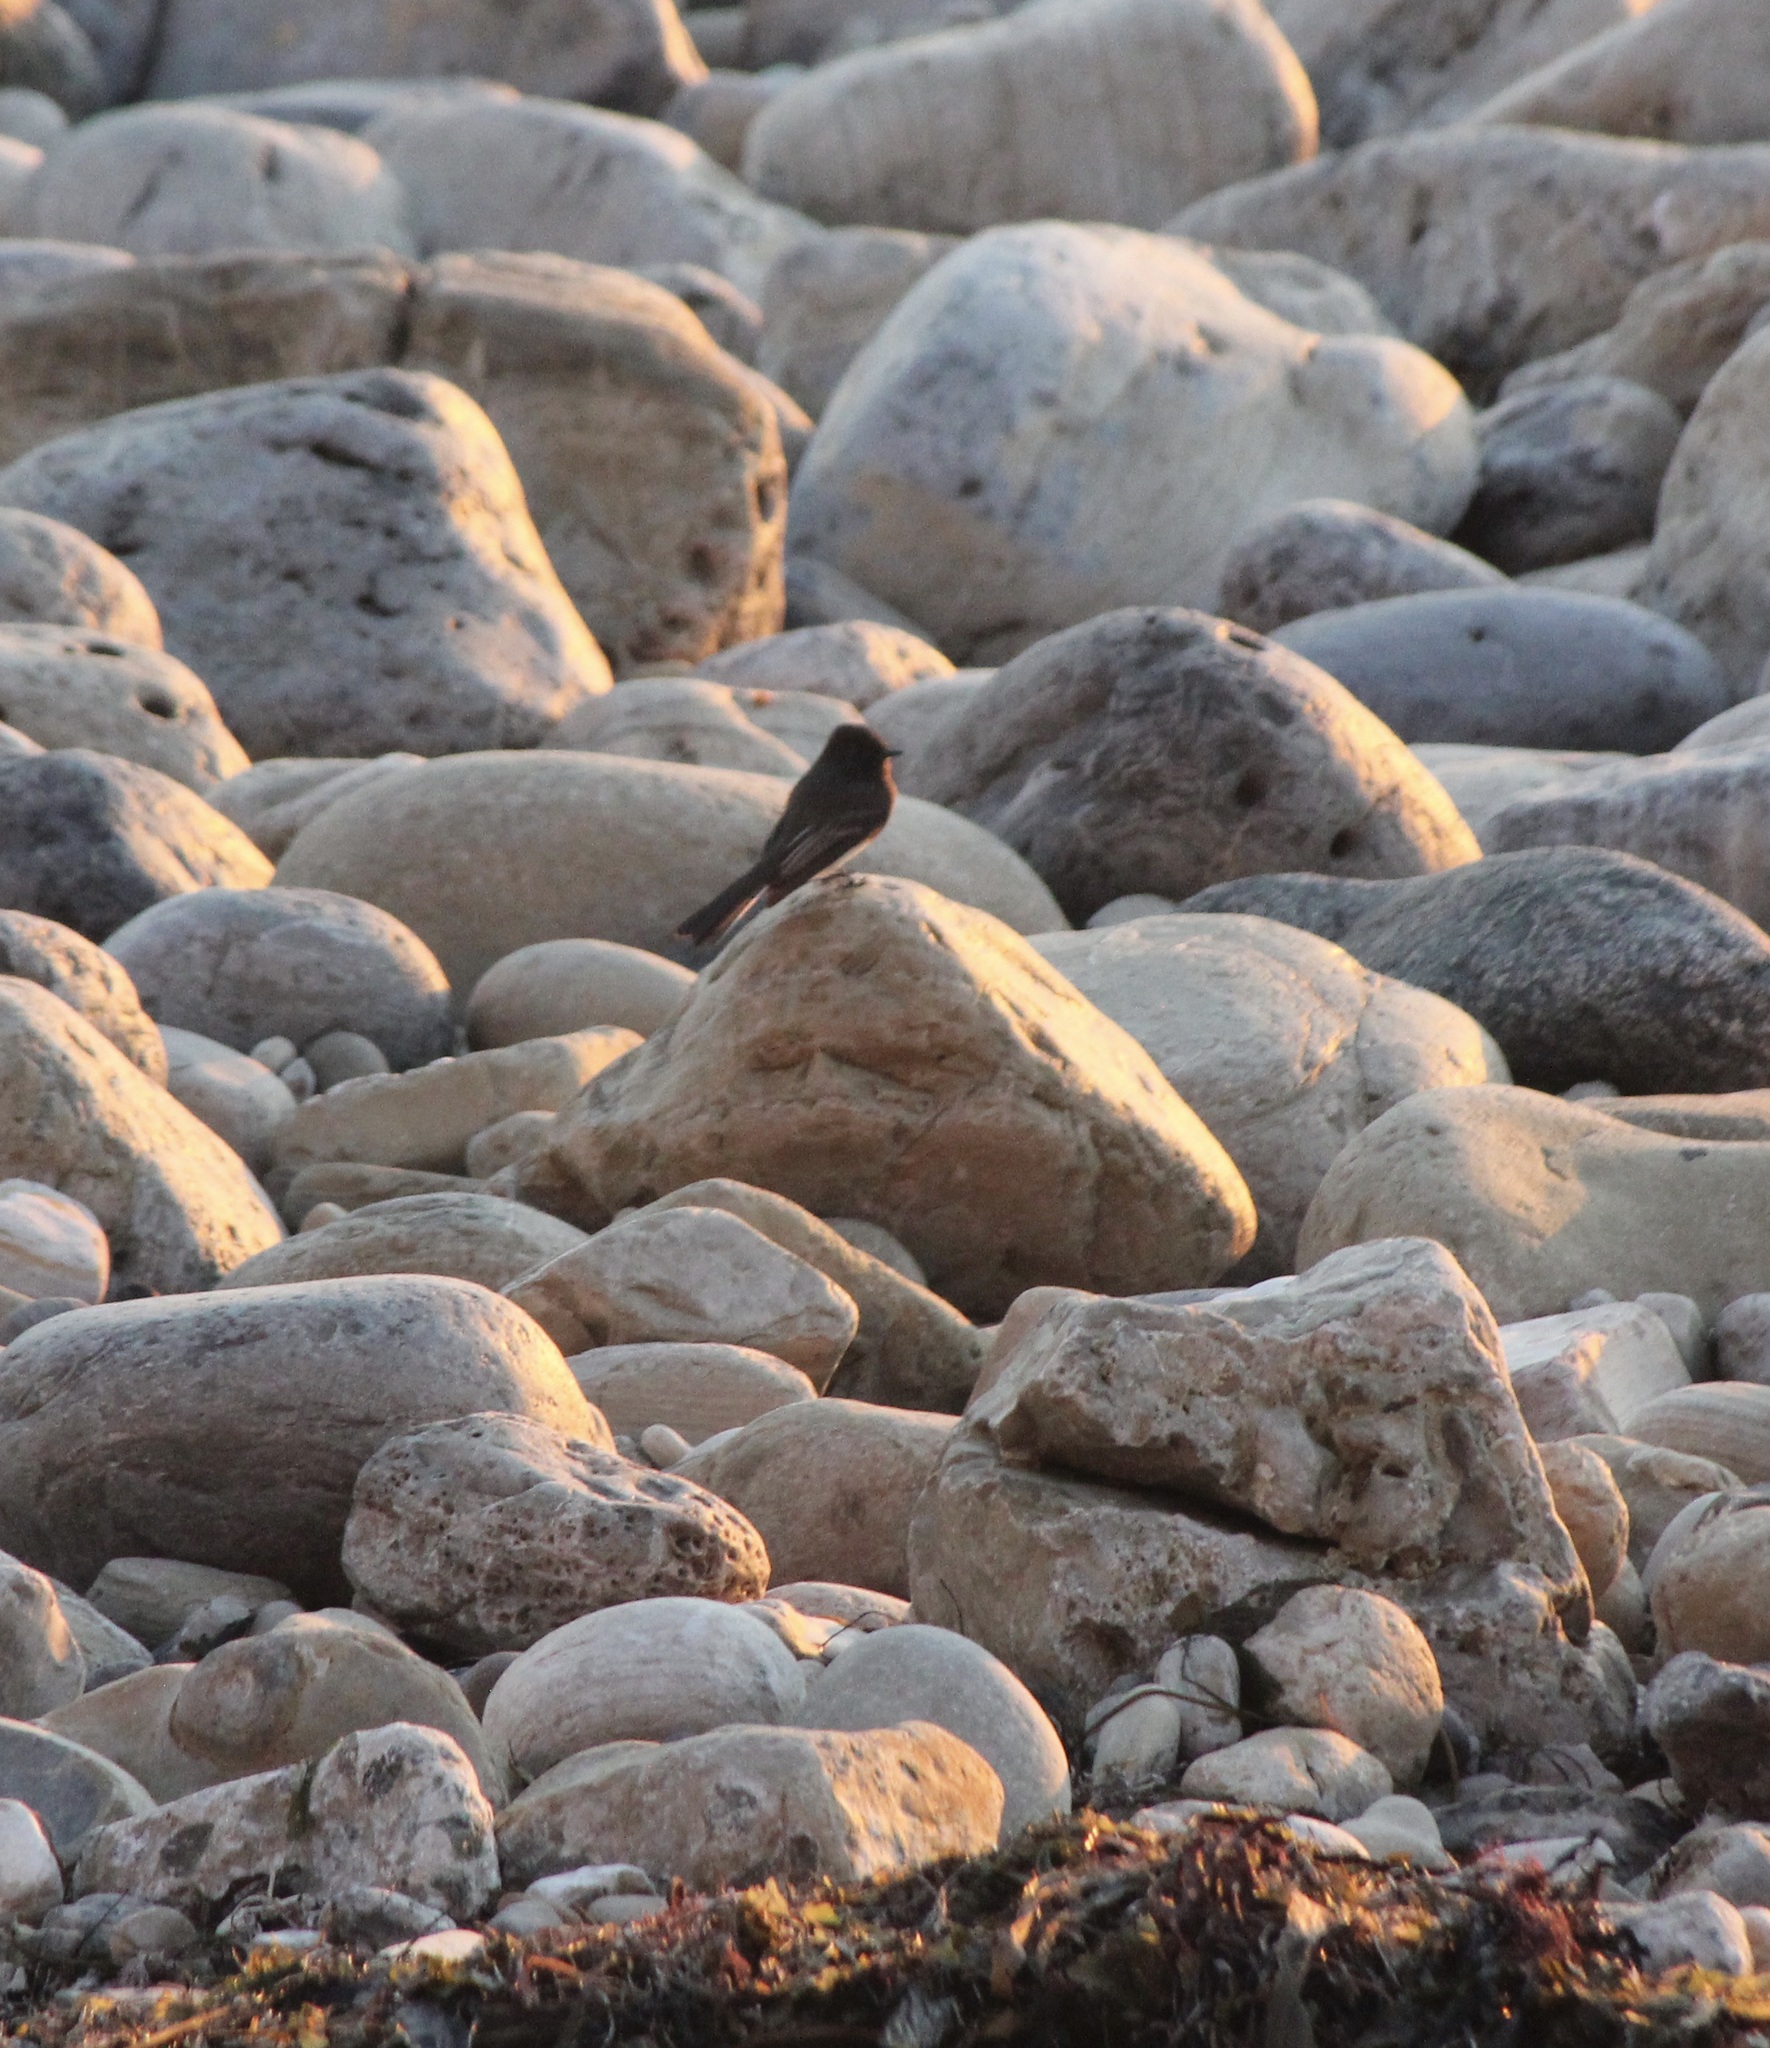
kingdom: Animalia
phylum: Chordata
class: Aves
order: Passeriformes
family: Tyrannidae
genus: Sayornis
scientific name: Sayornis nigricans
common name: Black phoebe
